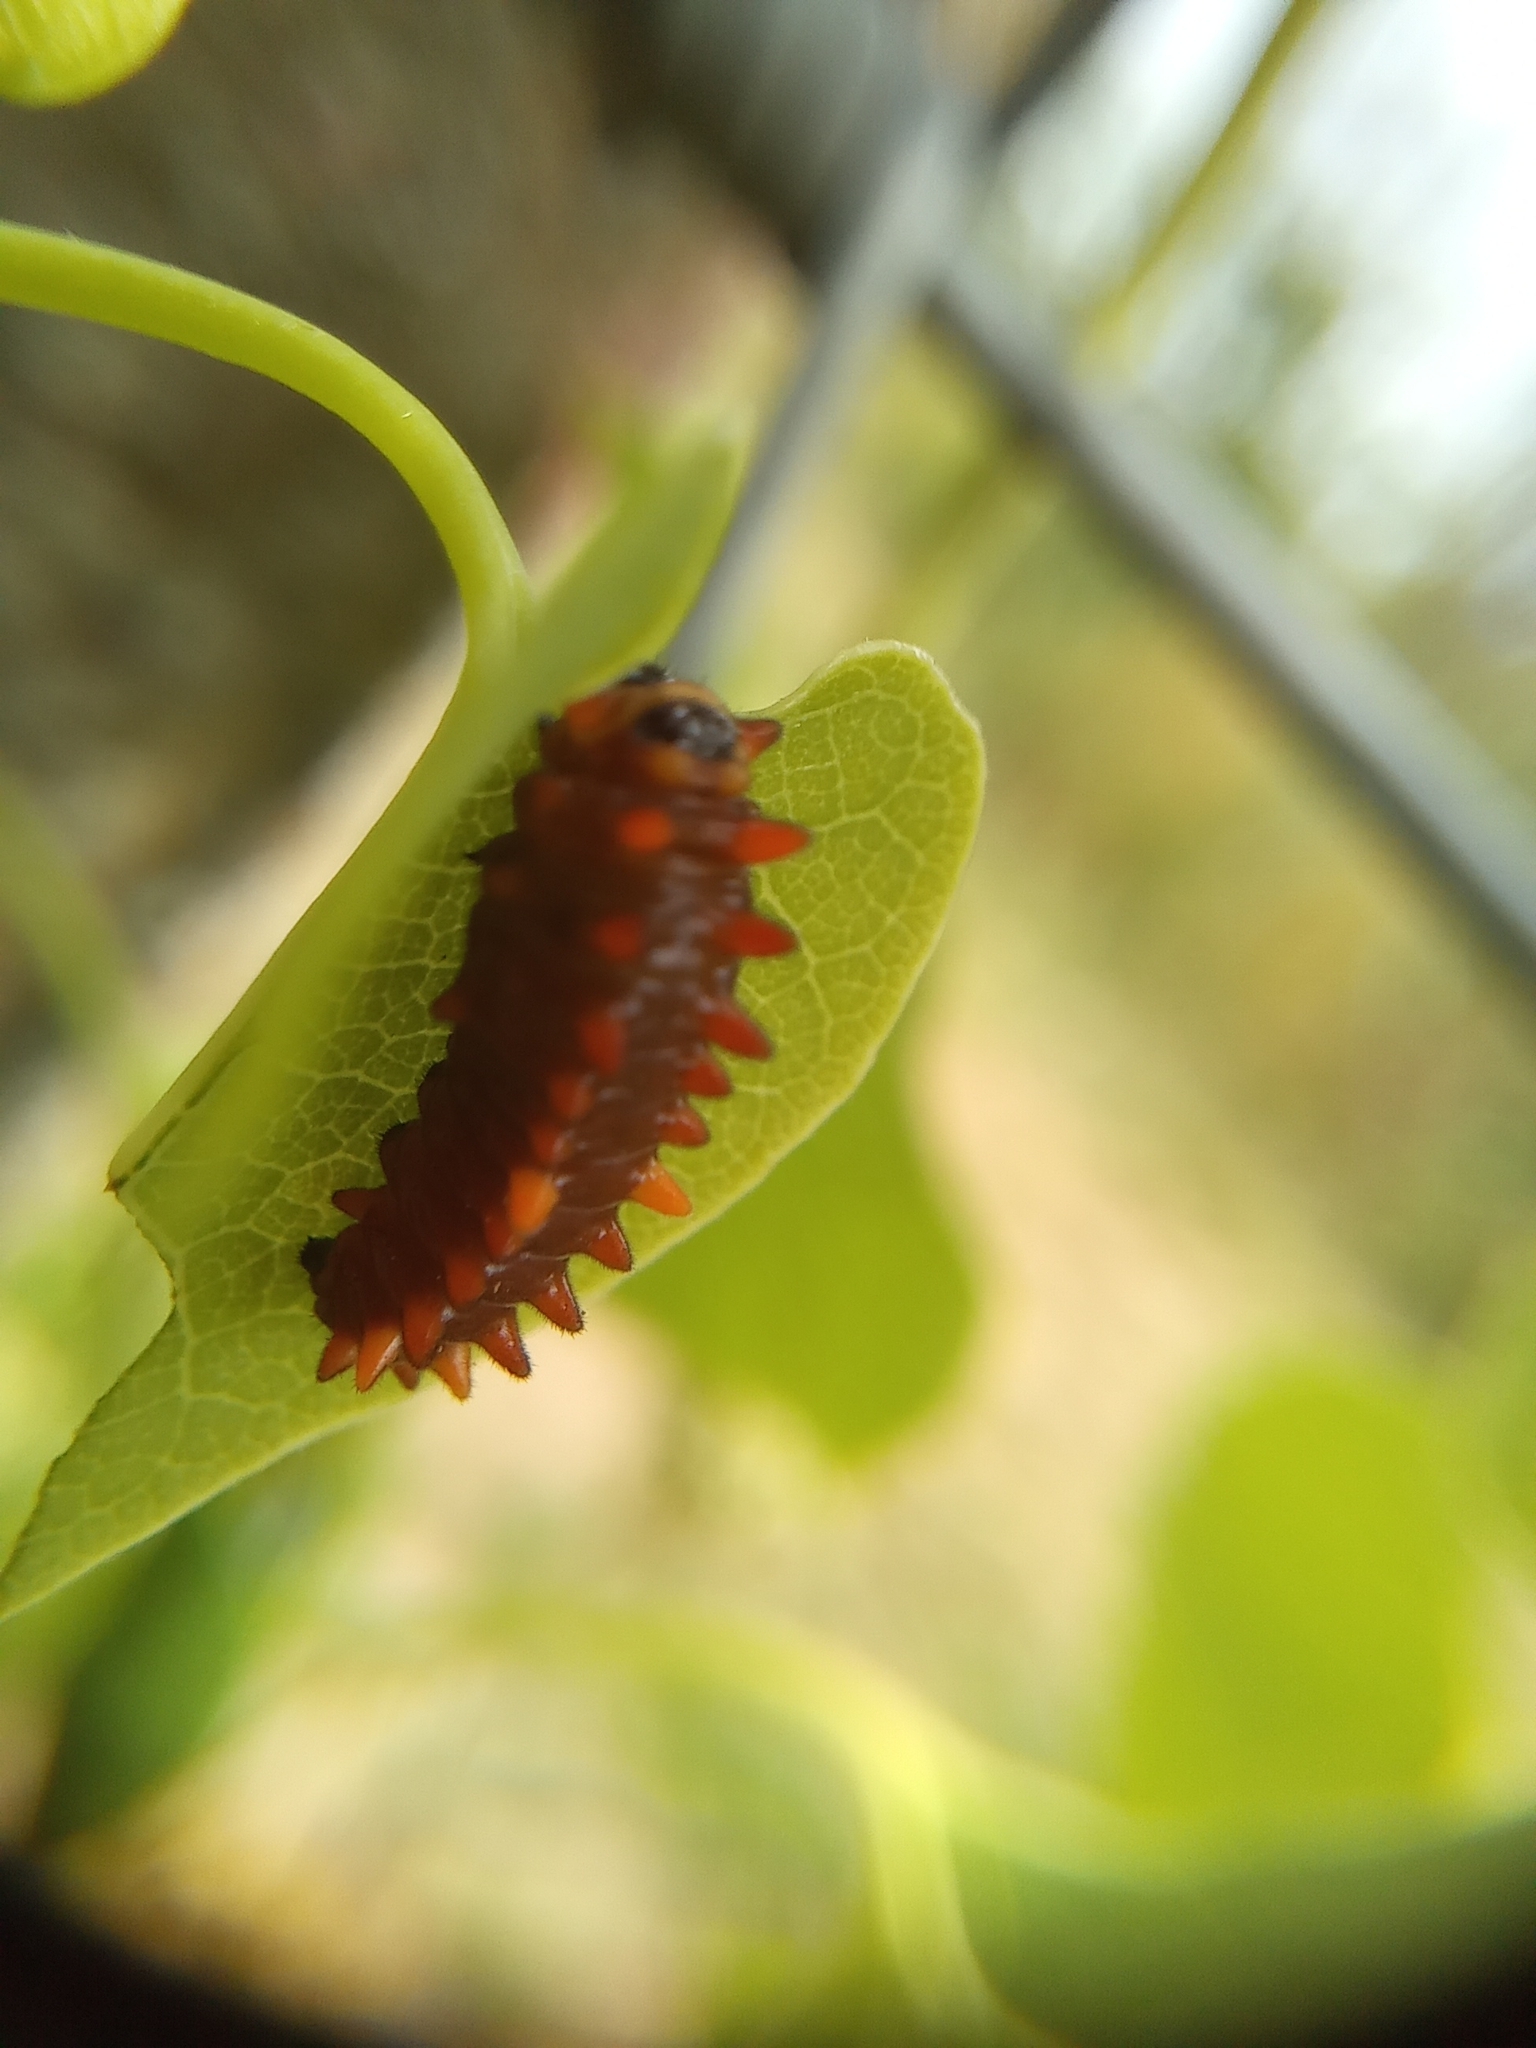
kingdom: Animalia
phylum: Arthropoda
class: Insecta
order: Lepidoptera
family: Papilionidae
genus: Battus
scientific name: Battus polydamas
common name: Polydamas swallowtail
